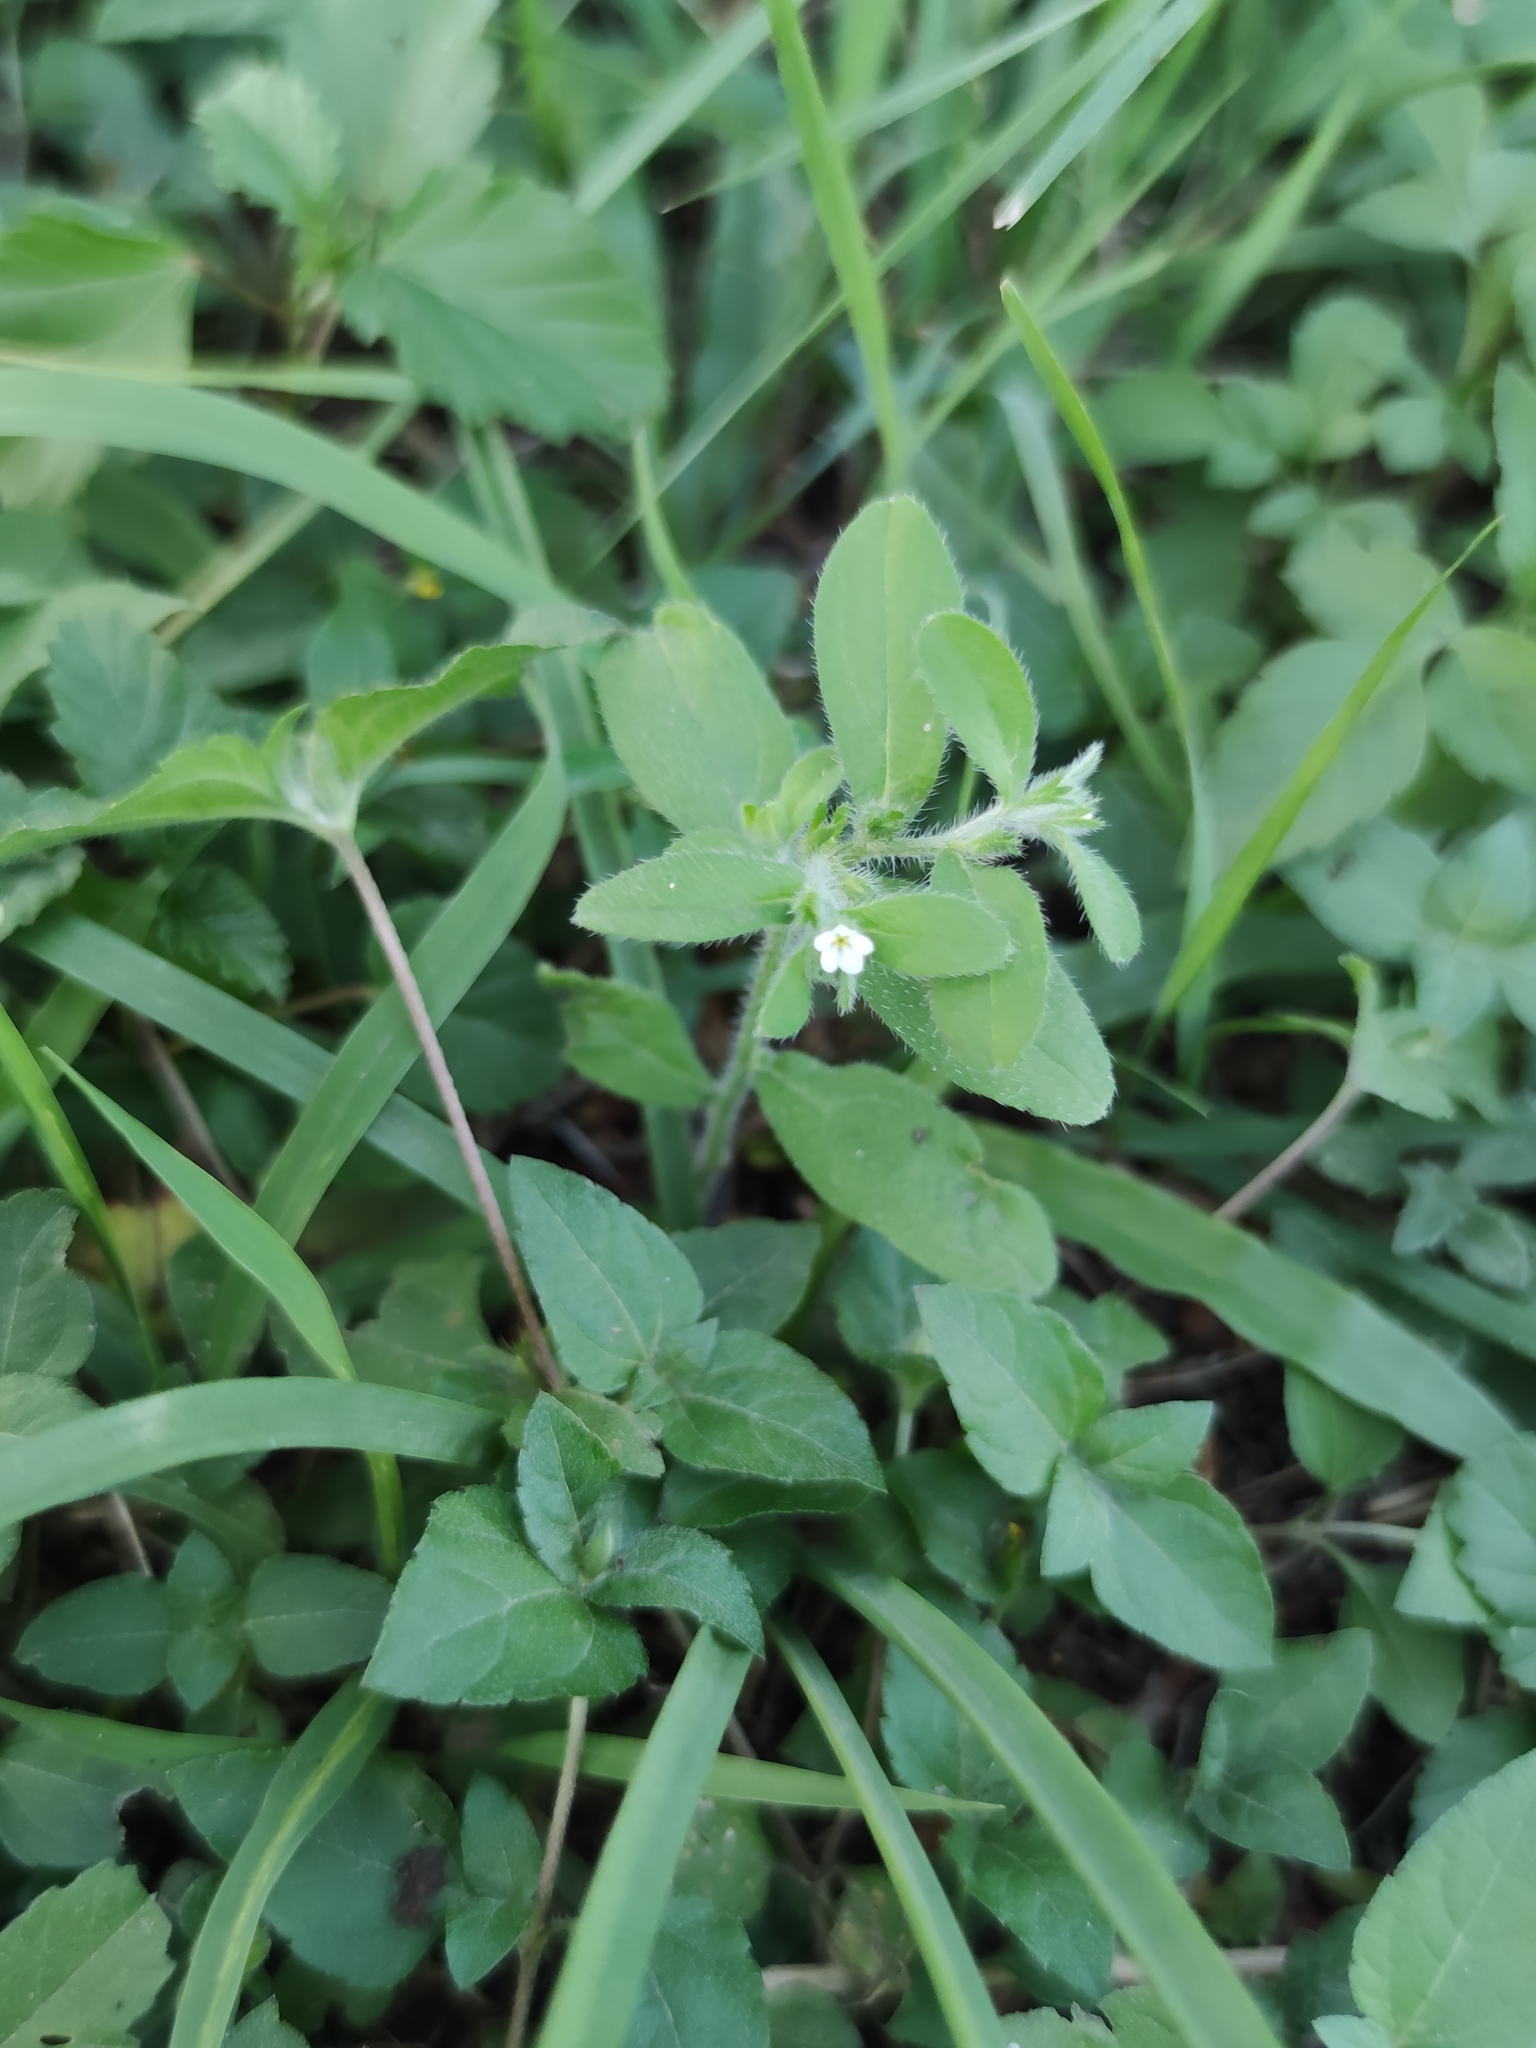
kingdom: Plantae
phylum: Tracheophyta
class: Magnoliopsida
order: Boraginales
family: Boraginaceae
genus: Lithospermum
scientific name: Lithospermum matamorense
